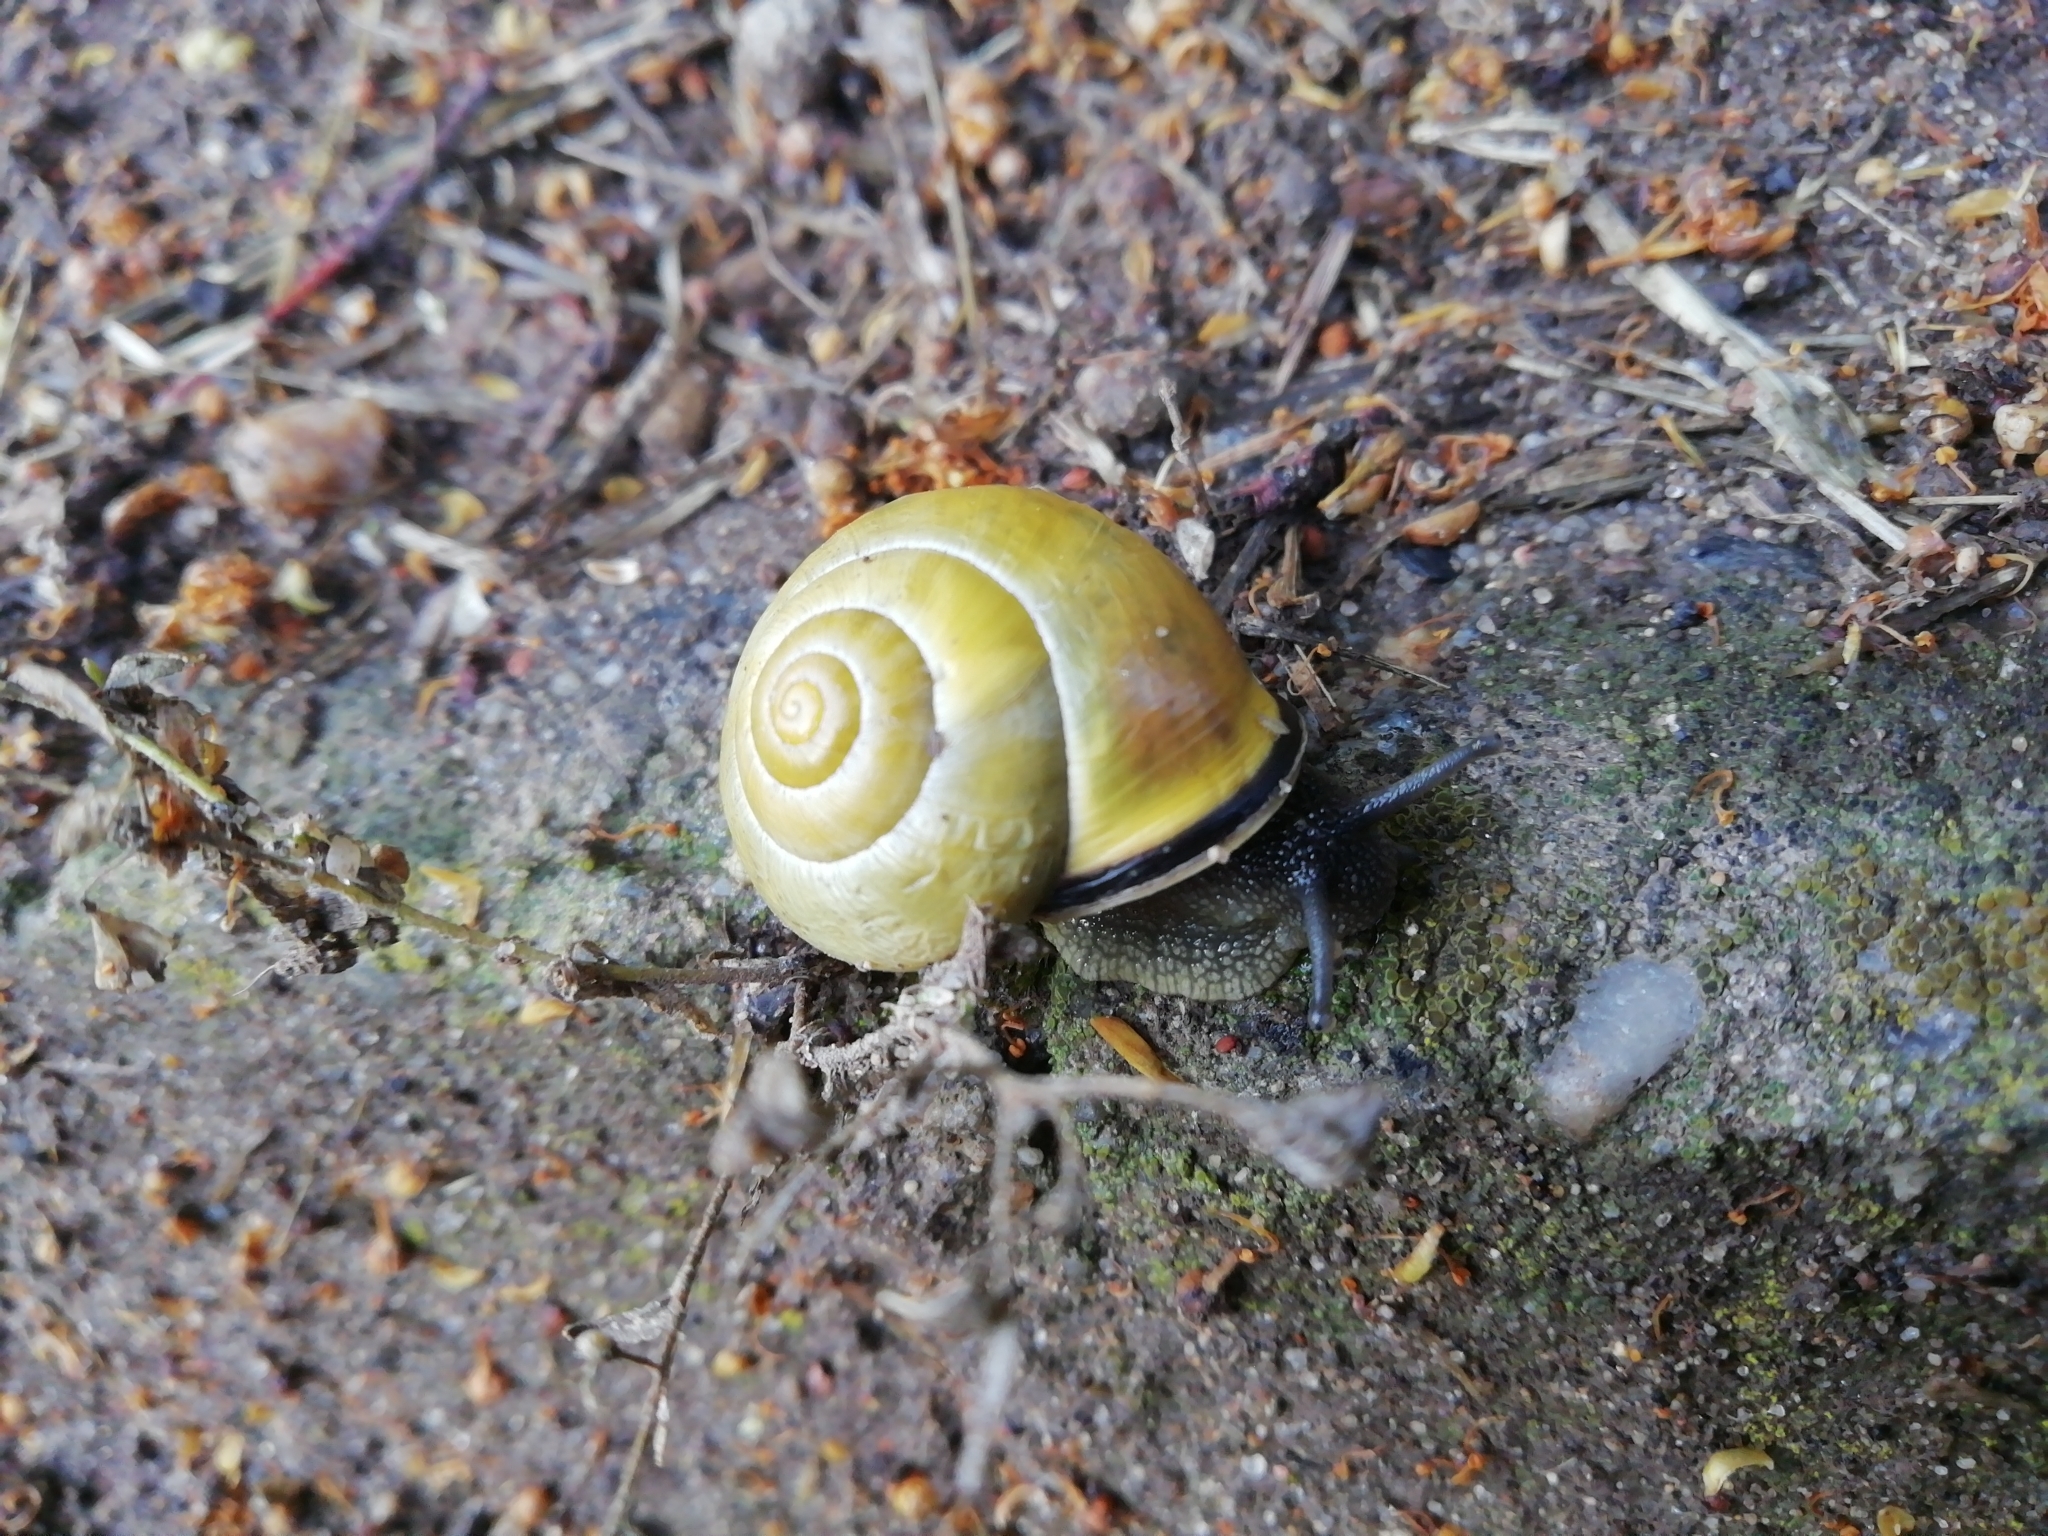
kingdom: Animalia
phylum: Mollusca
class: Gastropoda
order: Stylommatophora
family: Helicidae
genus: Cepaea
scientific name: Cepaea nemoralis
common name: Grovesnail
